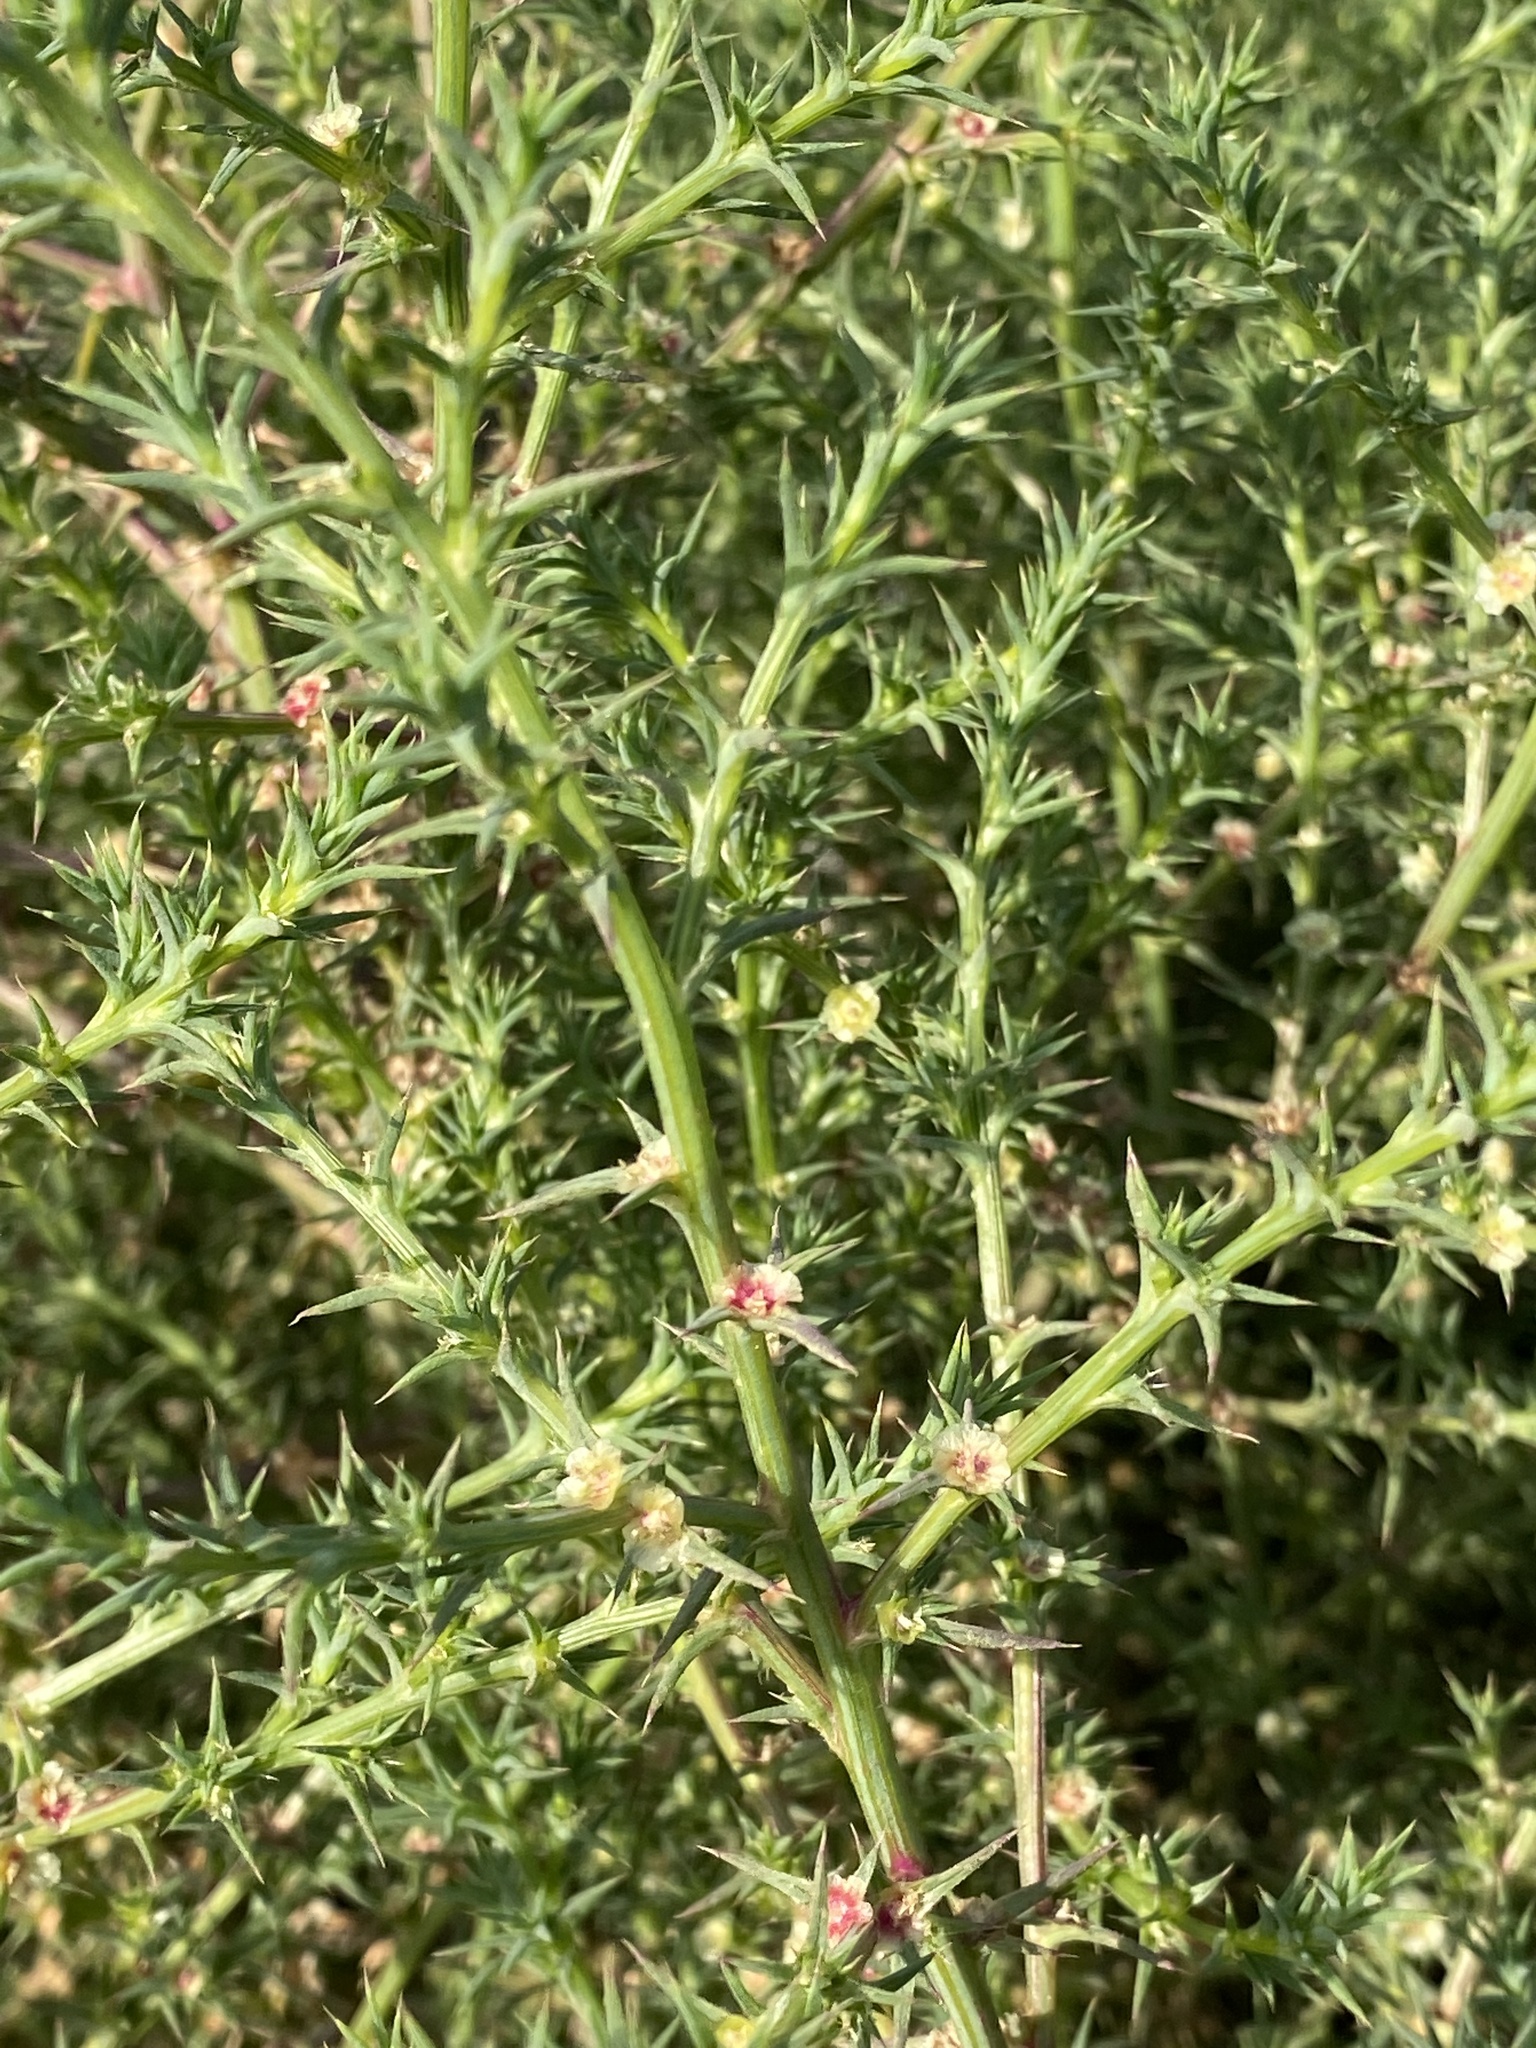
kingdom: Plantae
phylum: Tracheophyta
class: Magnoliopsida
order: Caryophyllales
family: Amaranthaceae
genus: Salsola
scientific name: Salsola tragus
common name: Prickly russian thistle
